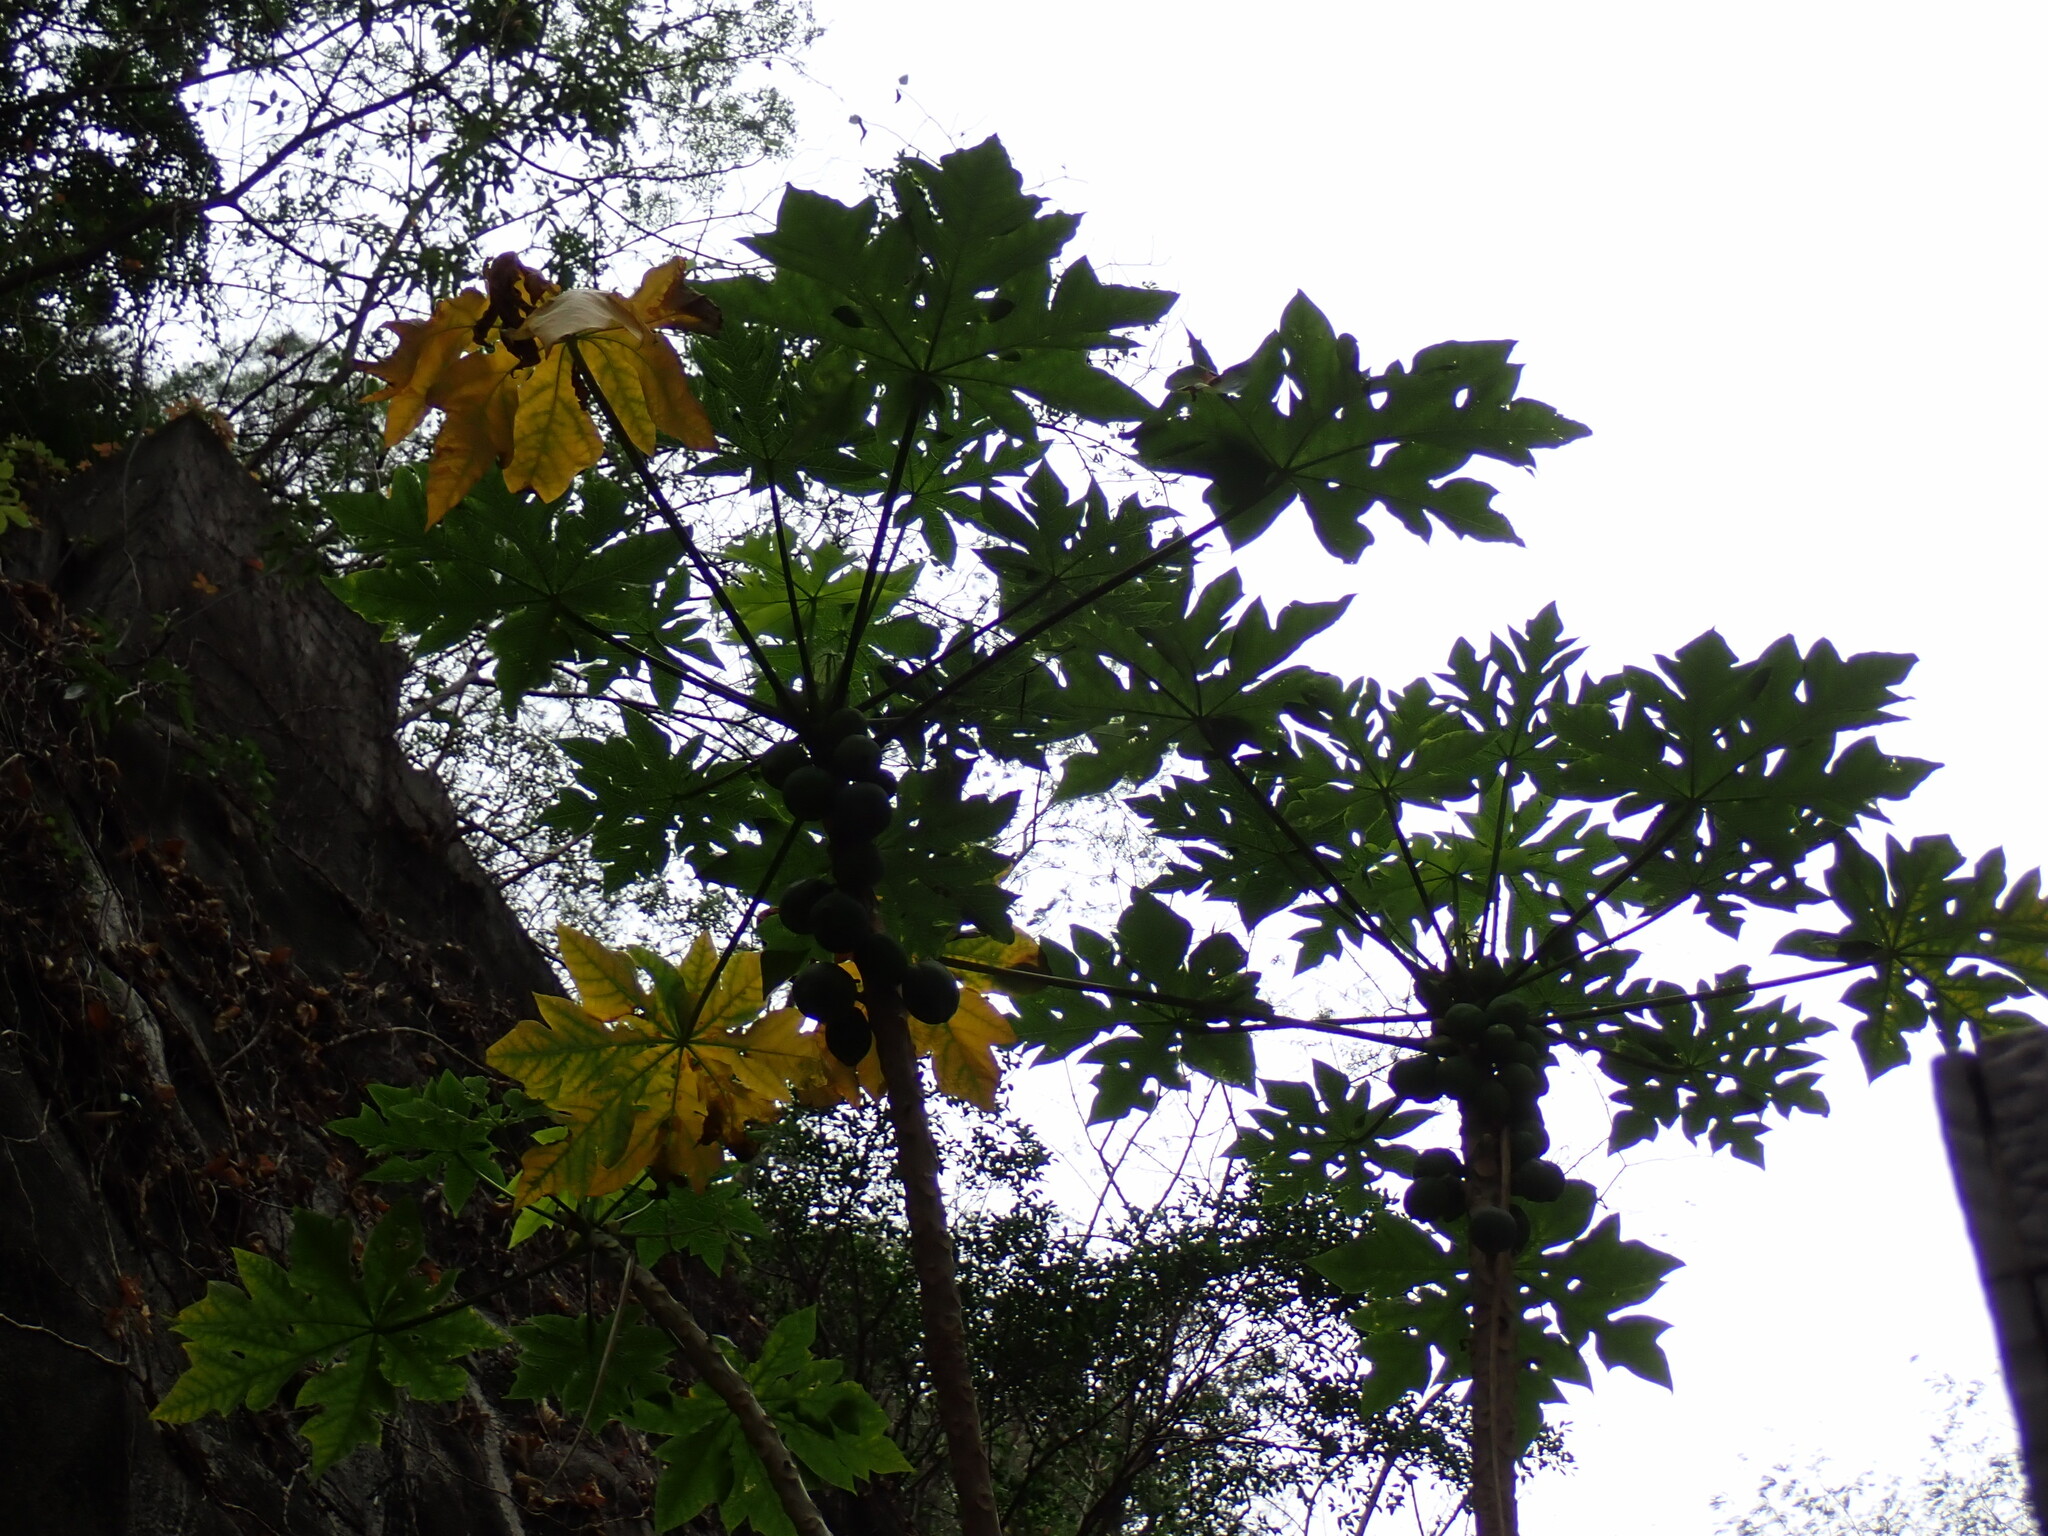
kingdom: Plantae
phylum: Tracheophyta
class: Magnoliopsida
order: Brassicales
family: Caricaceae
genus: Carica
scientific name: Carica papaya
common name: Papaya
